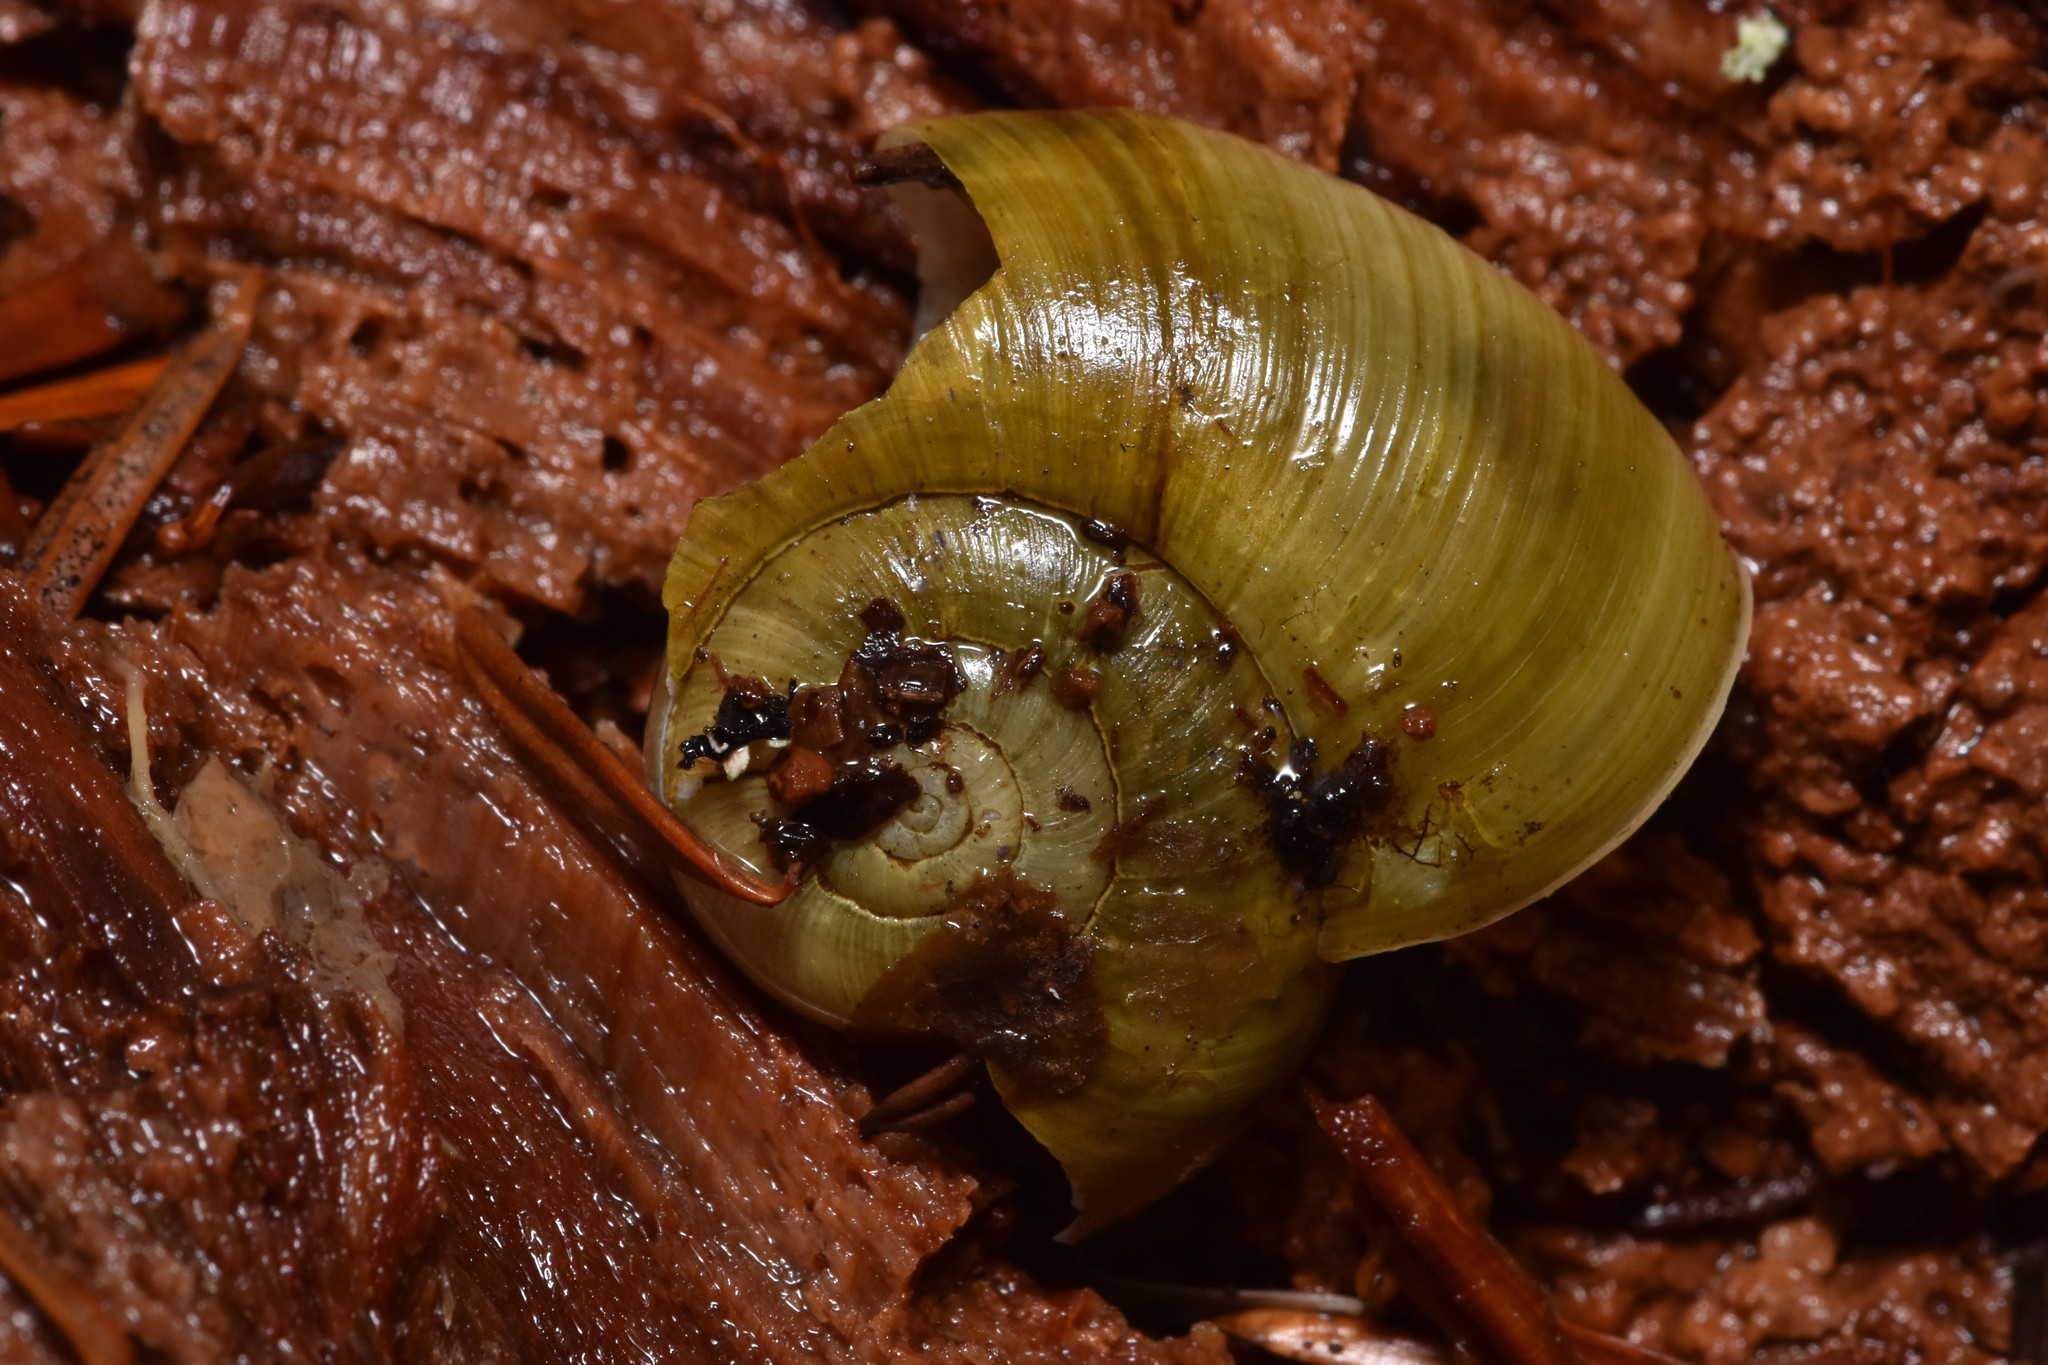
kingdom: Animalia
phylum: Mollusca
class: Gastropoda
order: Stylommatophora
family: Haplotrematidae
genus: Haplotrema
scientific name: Haplotrema vancouverense
